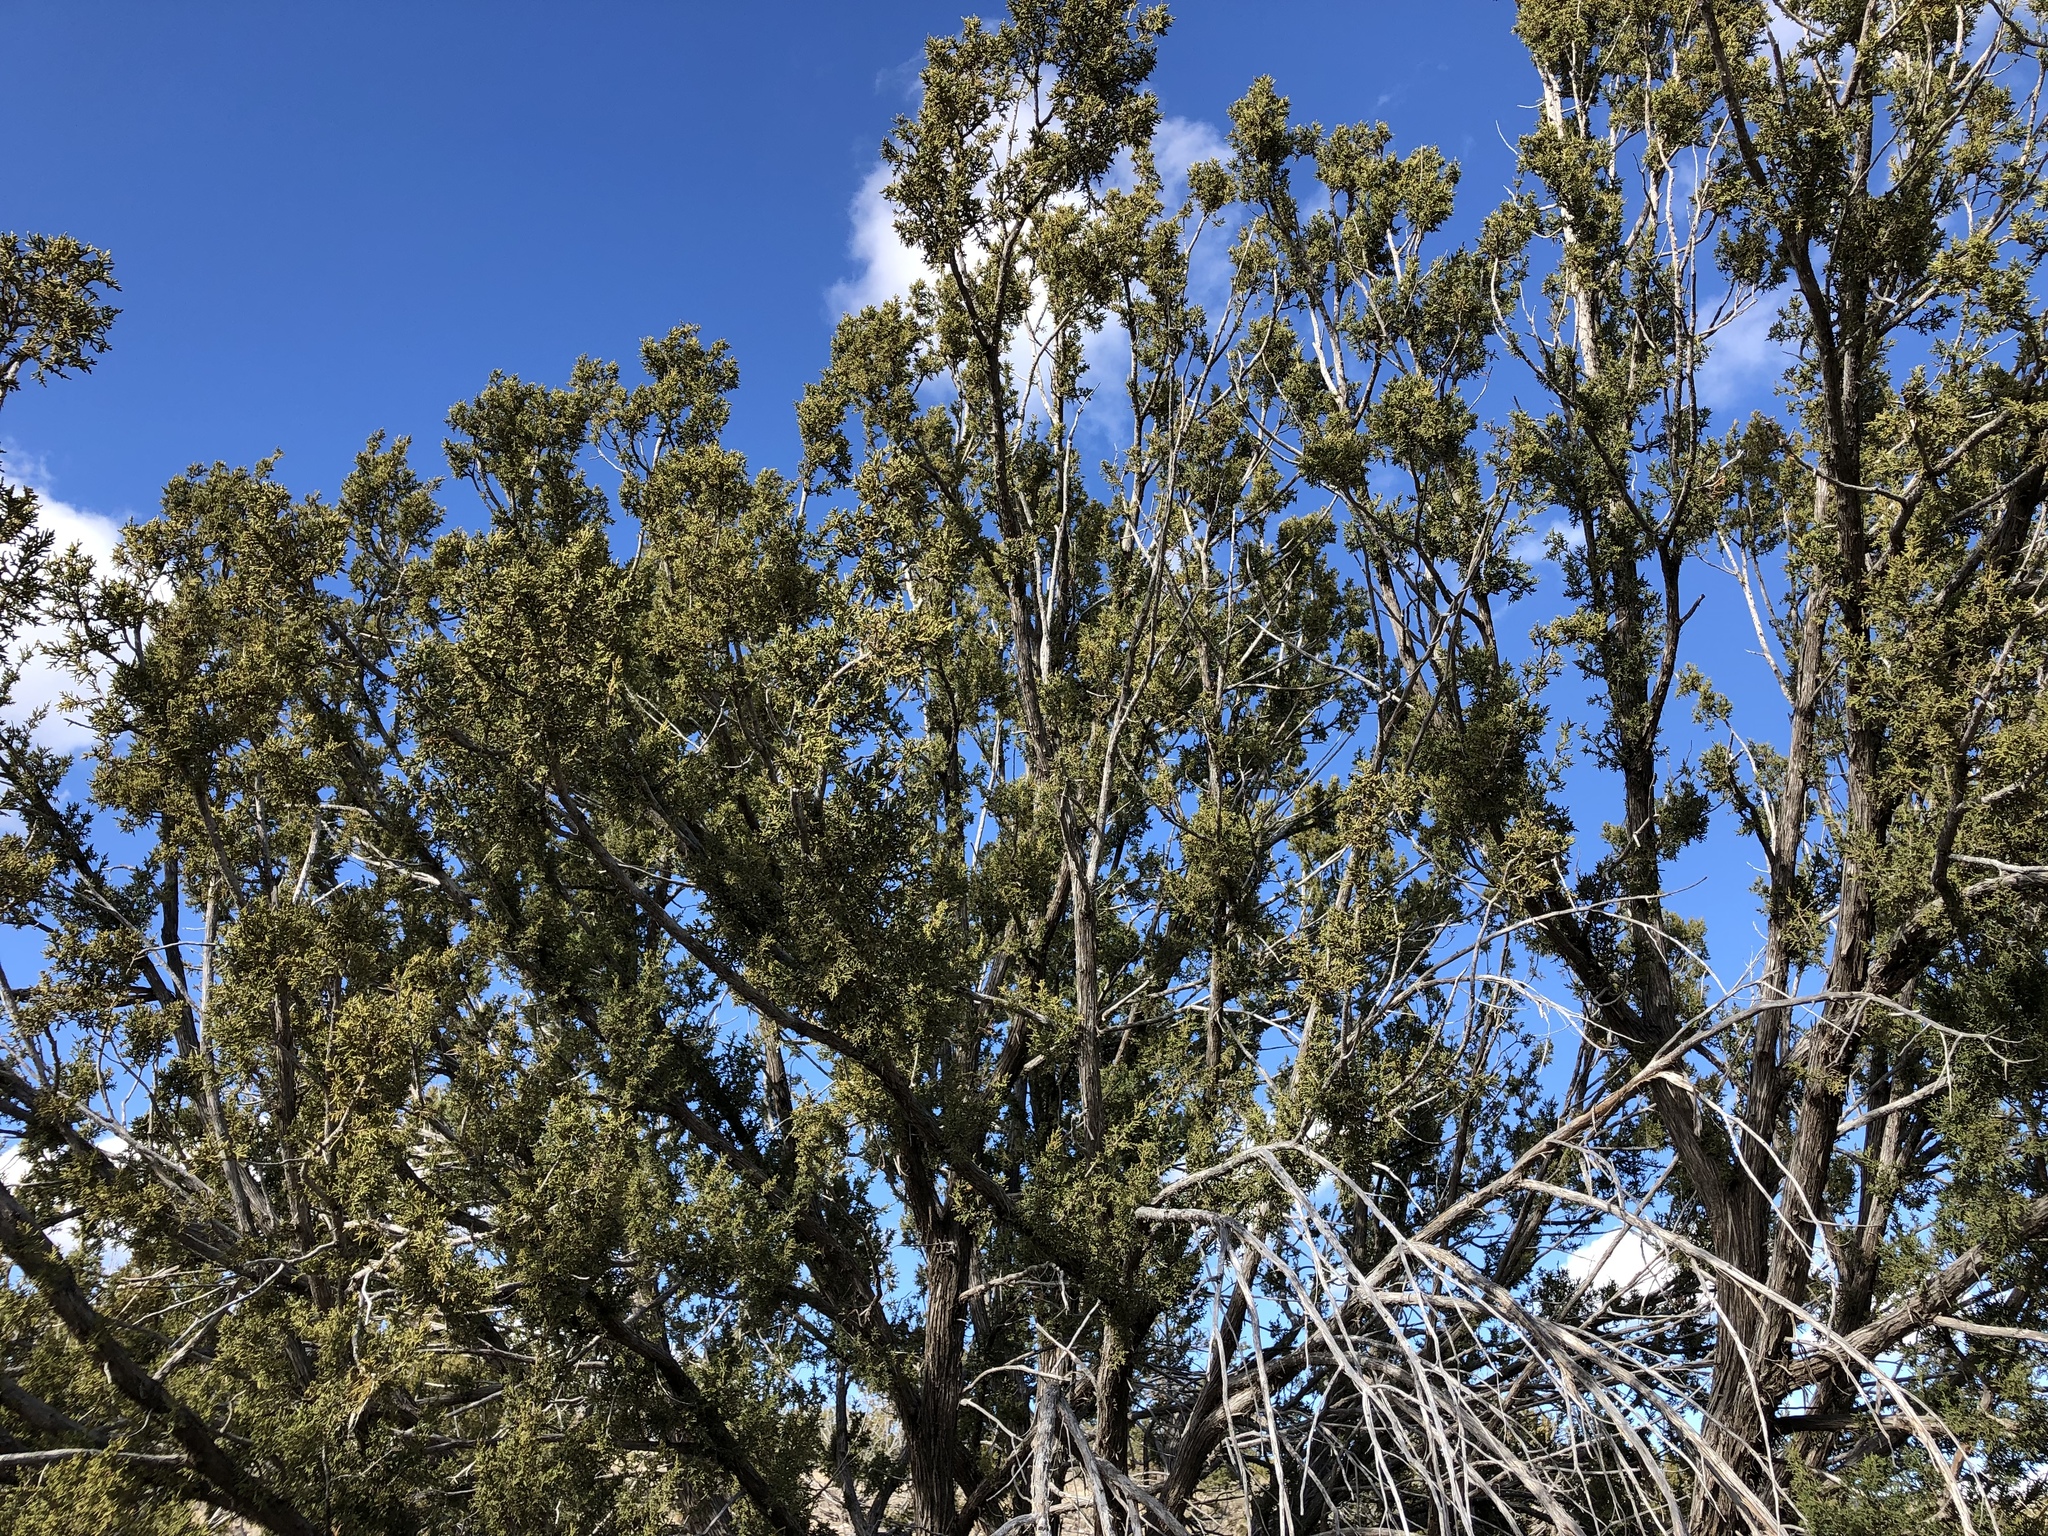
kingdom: Plantae
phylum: Tracheophyta
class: Pinopsida
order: Pinales
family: Cupressaceae
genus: Juniperus
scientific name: Juniperus monosperma
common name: One-seed juniper
